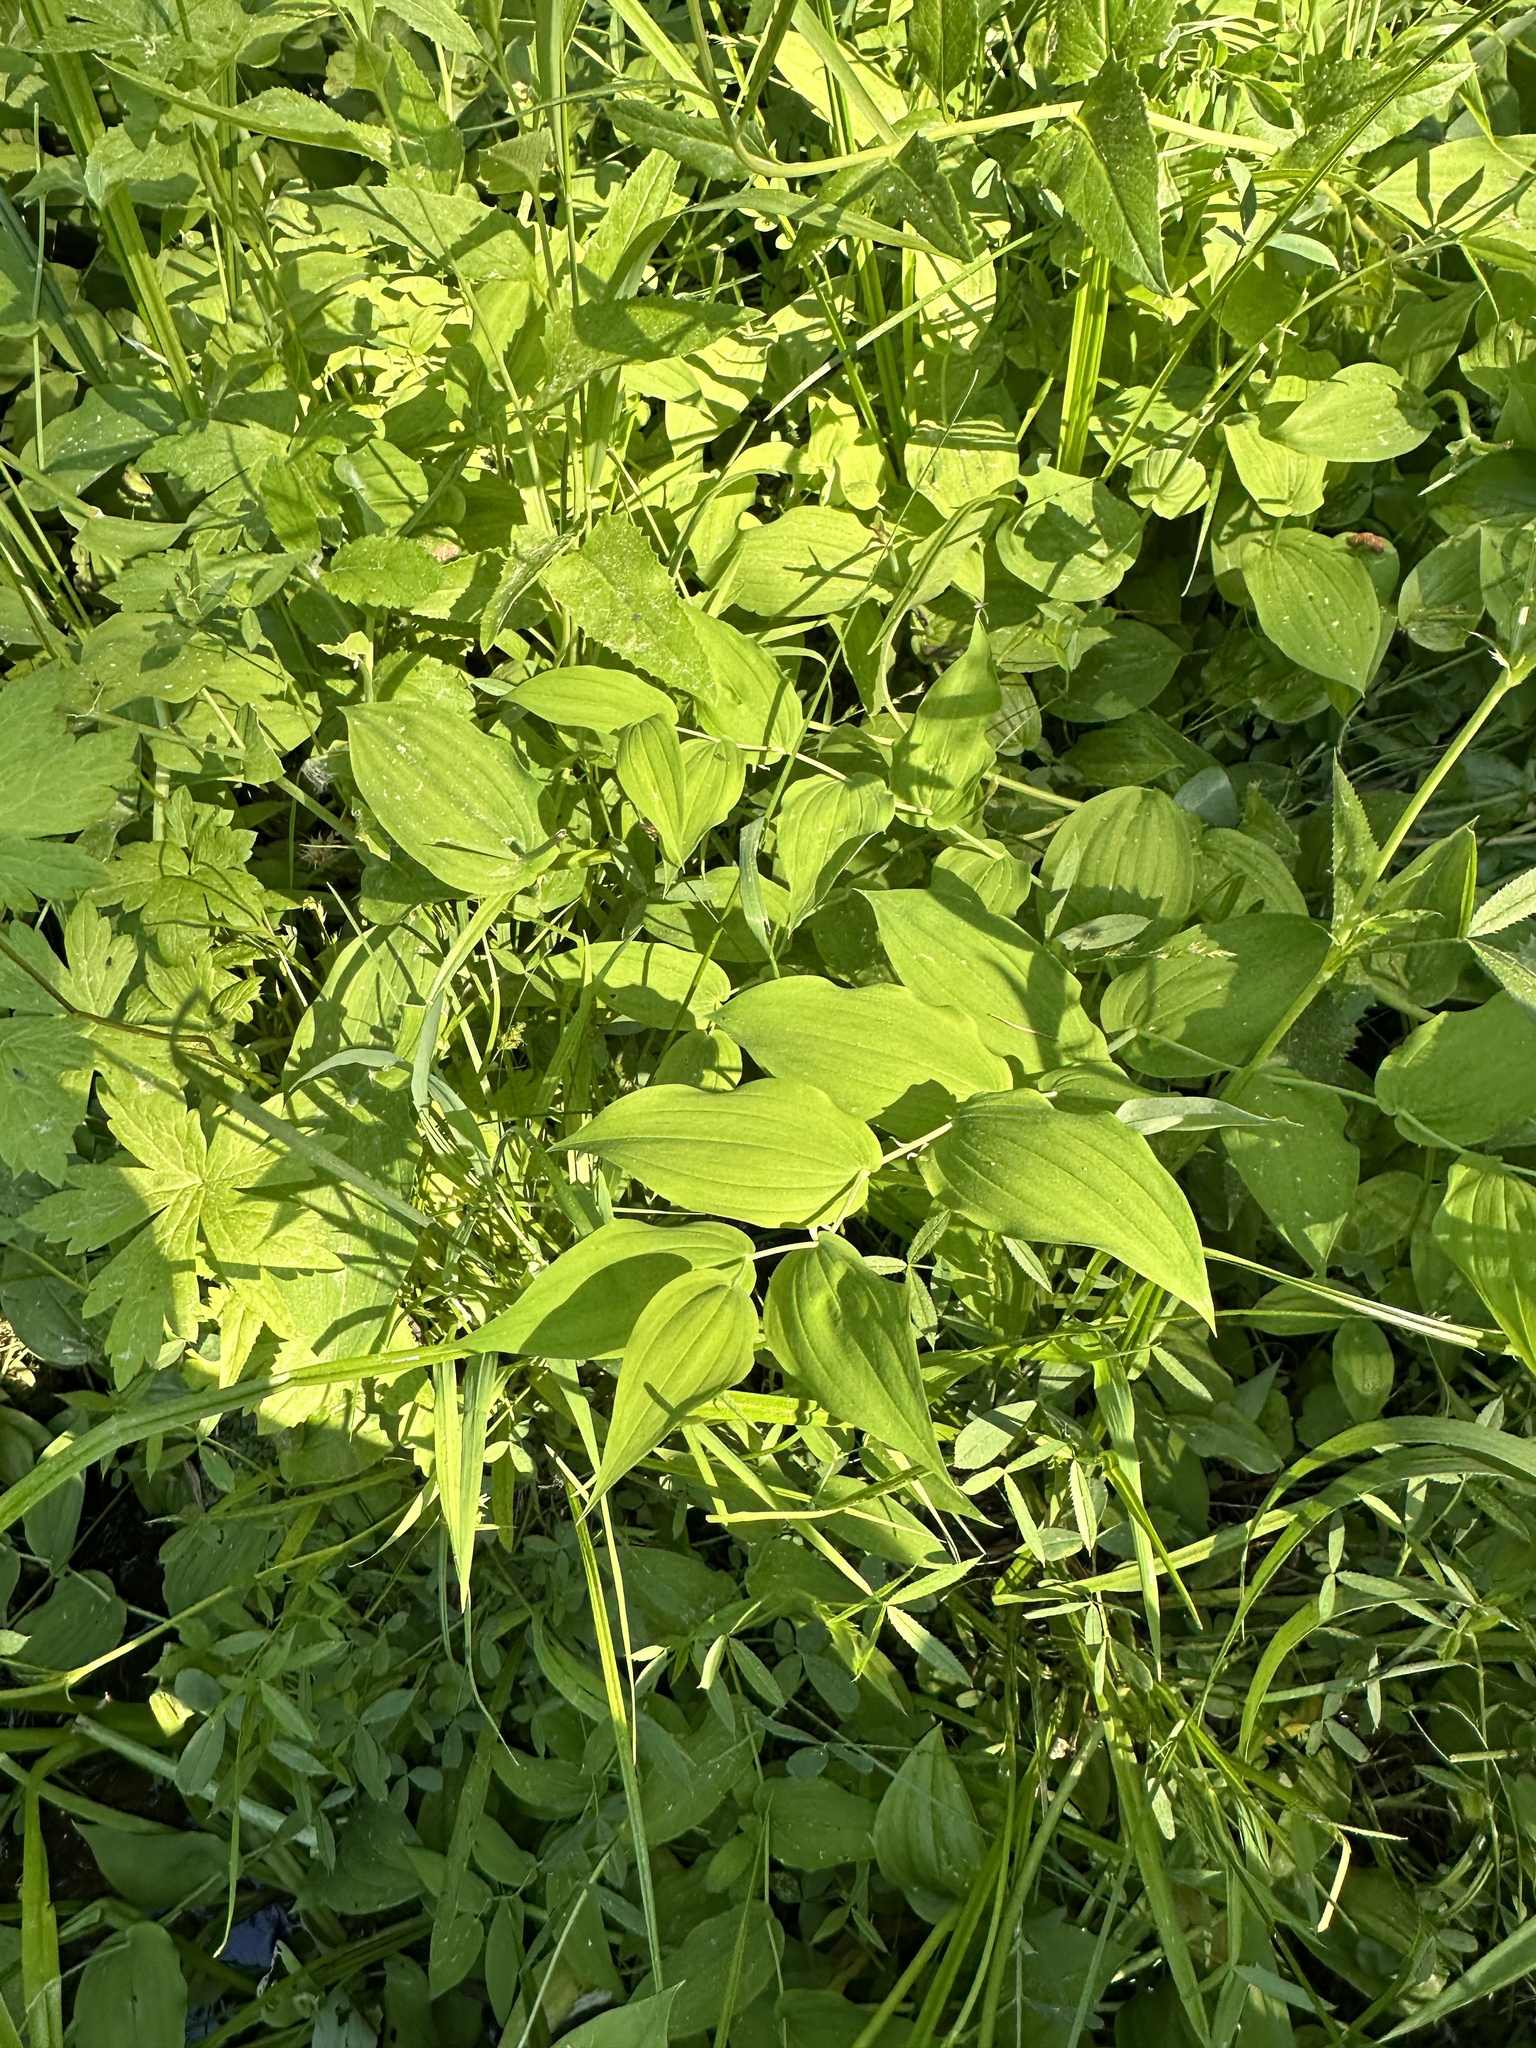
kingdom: Plantae
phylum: Tracheophyta
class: Liliopsida
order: Liliales
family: Liliaceae
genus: Streptopus
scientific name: Streptopus amplexifolius
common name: Clasp twisted stalk
